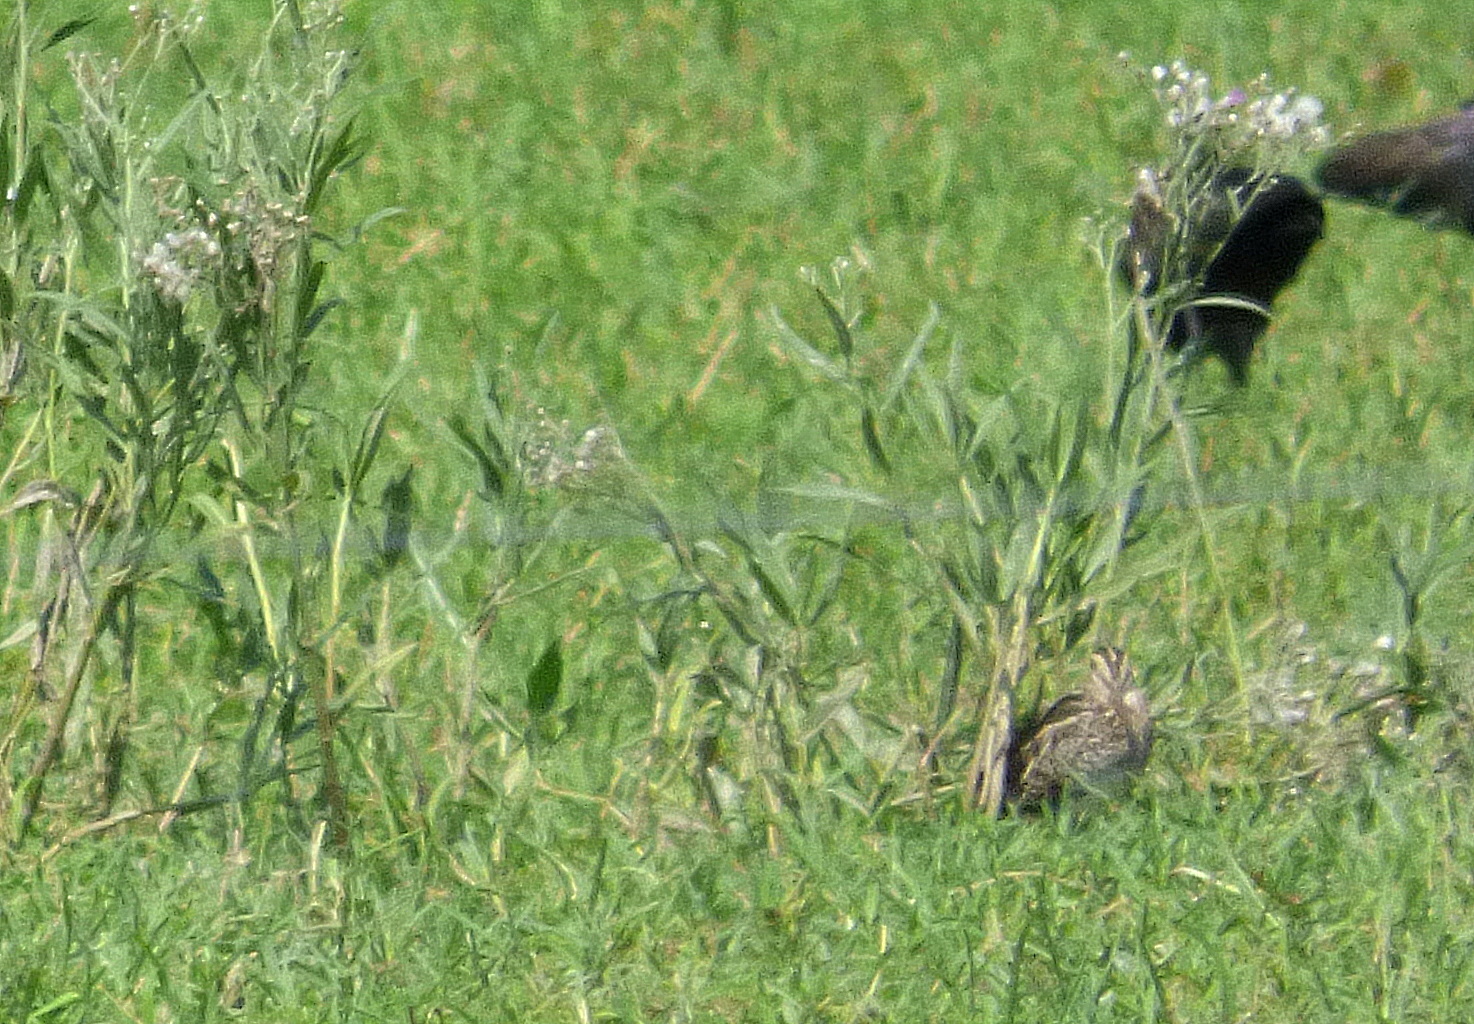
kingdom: Animalia
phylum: Chordata
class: Aves
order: Charadriiformes
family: Scolopacidae
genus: Gallinago
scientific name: Gallinago paraguaiae
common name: South american snipe
